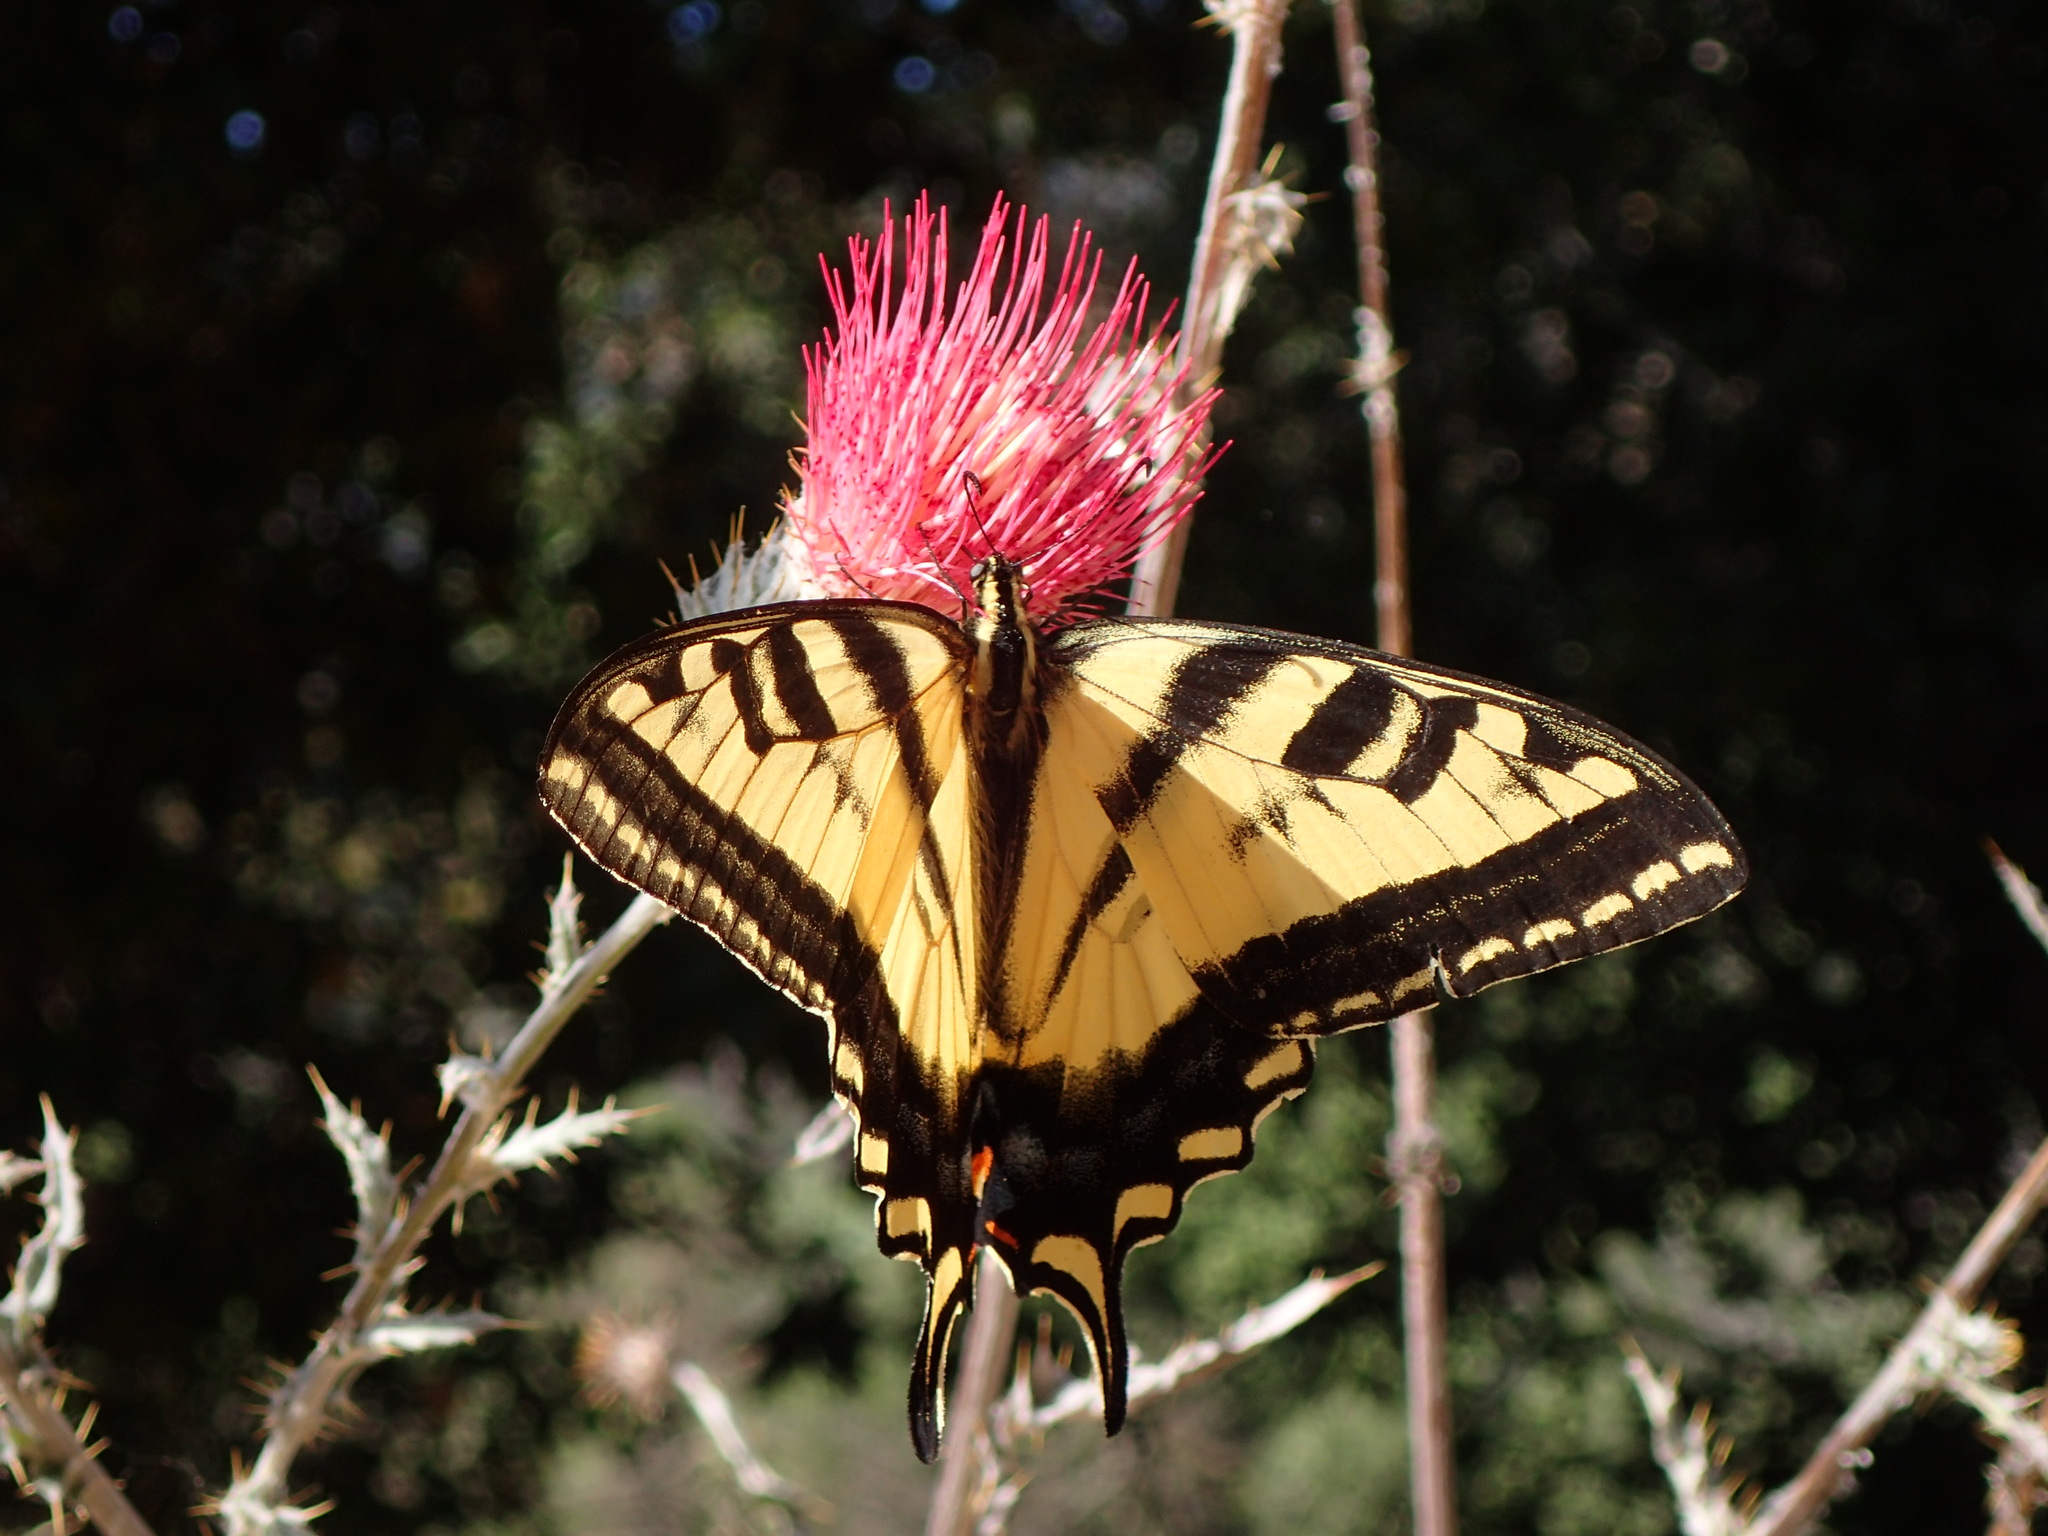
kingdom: Animalia
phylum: Arthropoda
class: Insecta
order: Lepidoptera
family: Papilionidae
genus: Papilio
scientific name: Papilio rutulus
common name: Western tiger swallowtail
